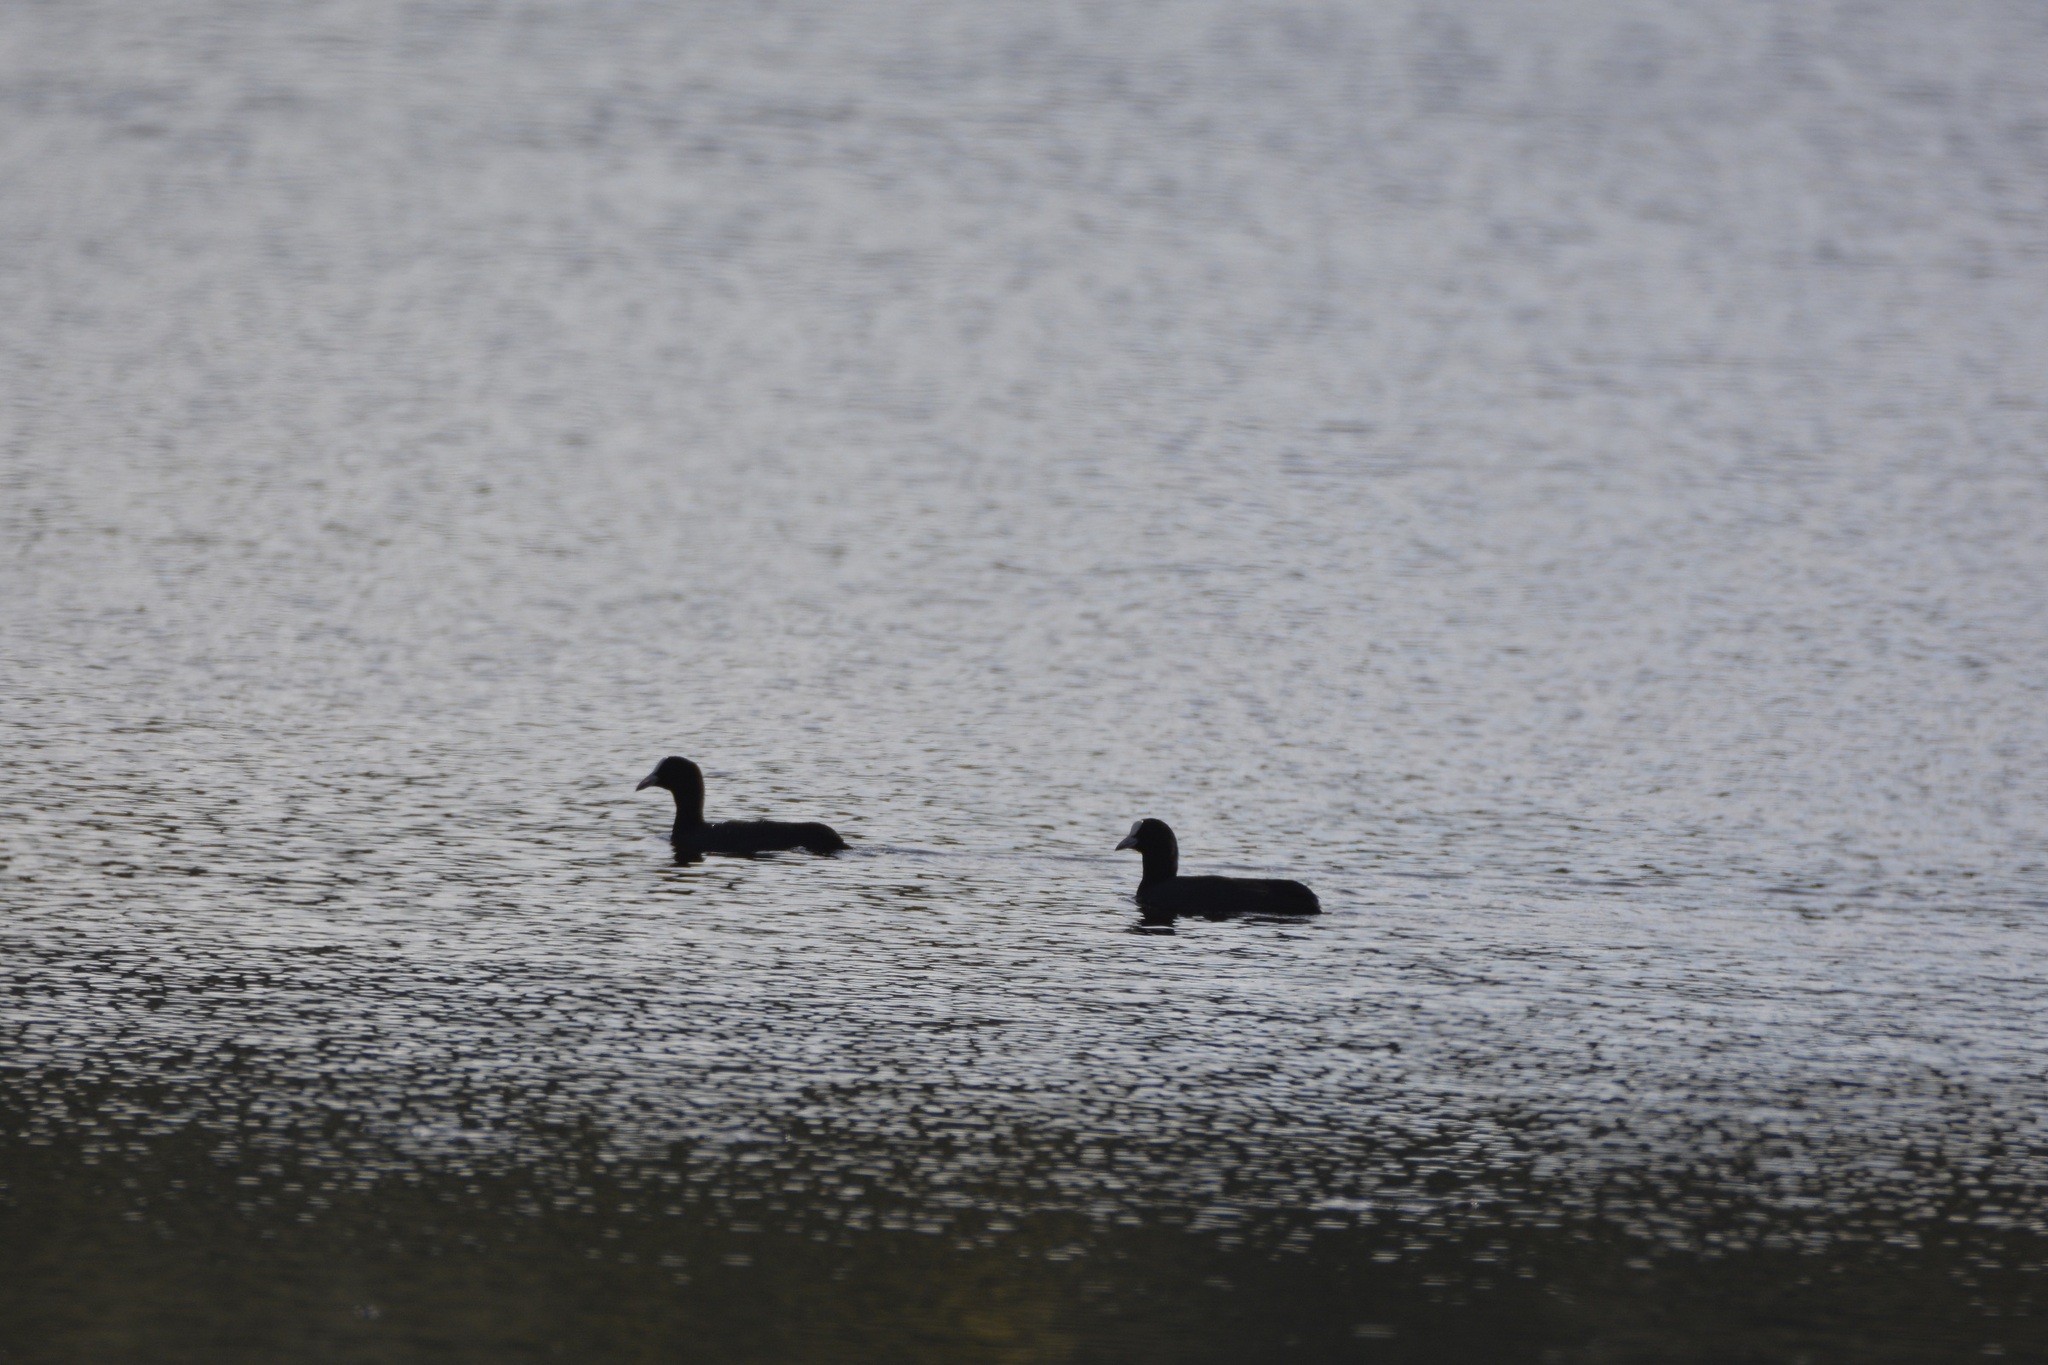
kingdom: Animalia
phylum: Chordata
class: Aves
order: Gruiformes
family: Rallidae
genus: Fulica
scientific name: Fulica atra
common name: Eurasian coot
